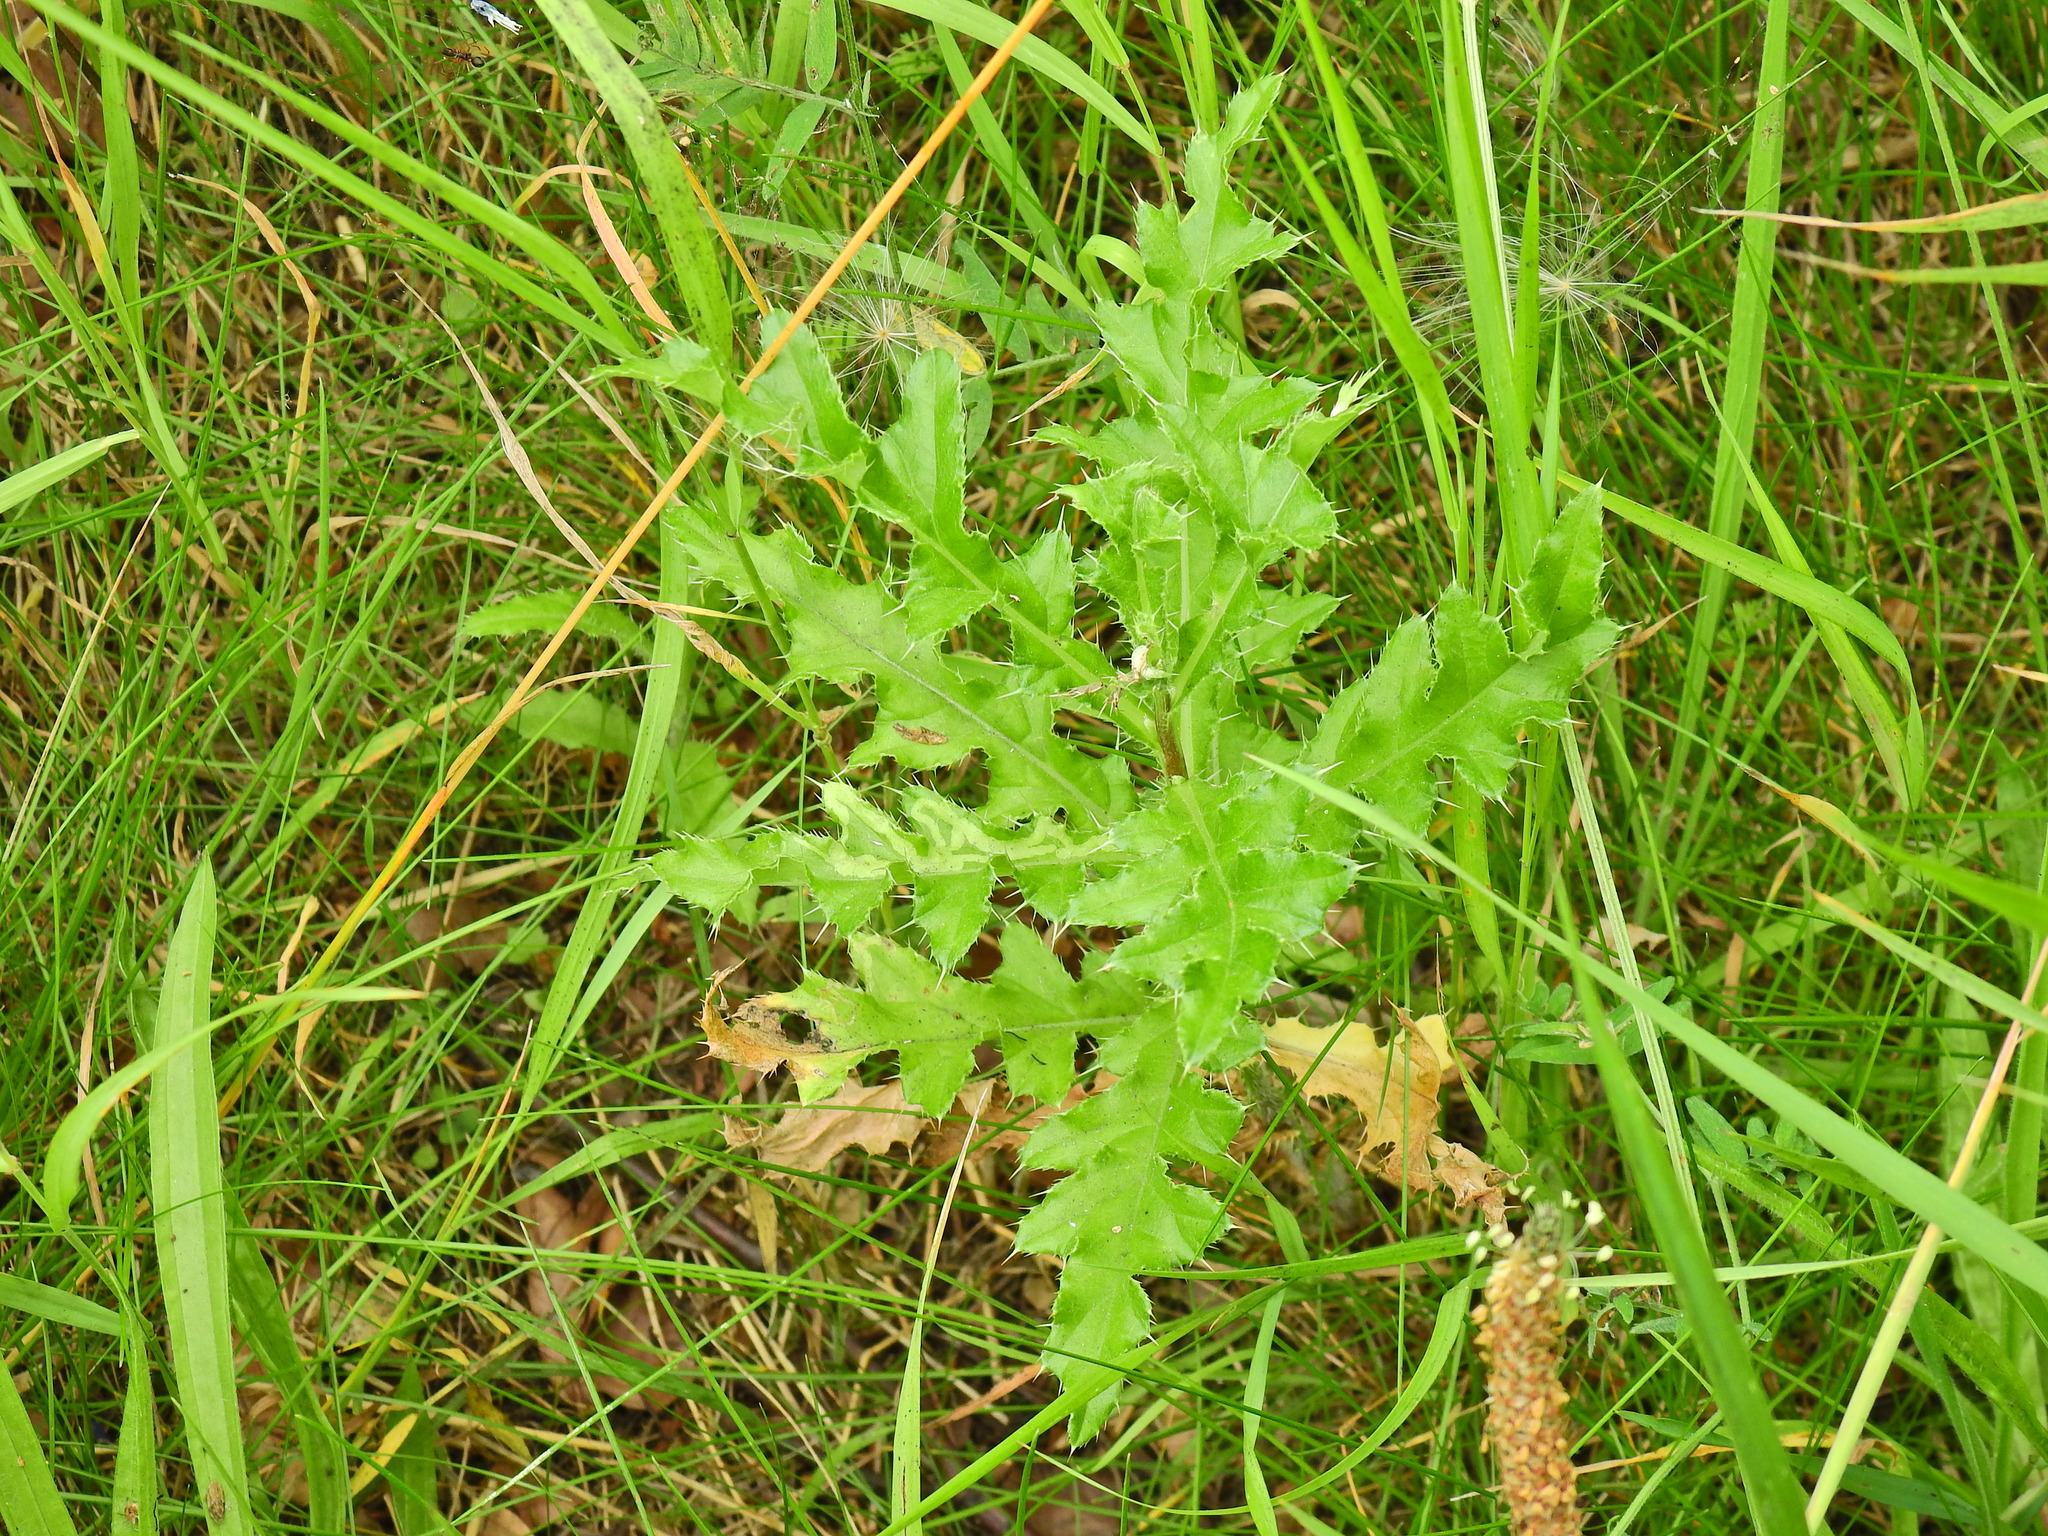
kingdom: Plantae
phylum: Tracheophyta
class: Magnoliopsida
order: Asterales
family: Asteraceae
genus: Cirsium
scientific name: Cirsium arvense
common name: Creeping thistle
